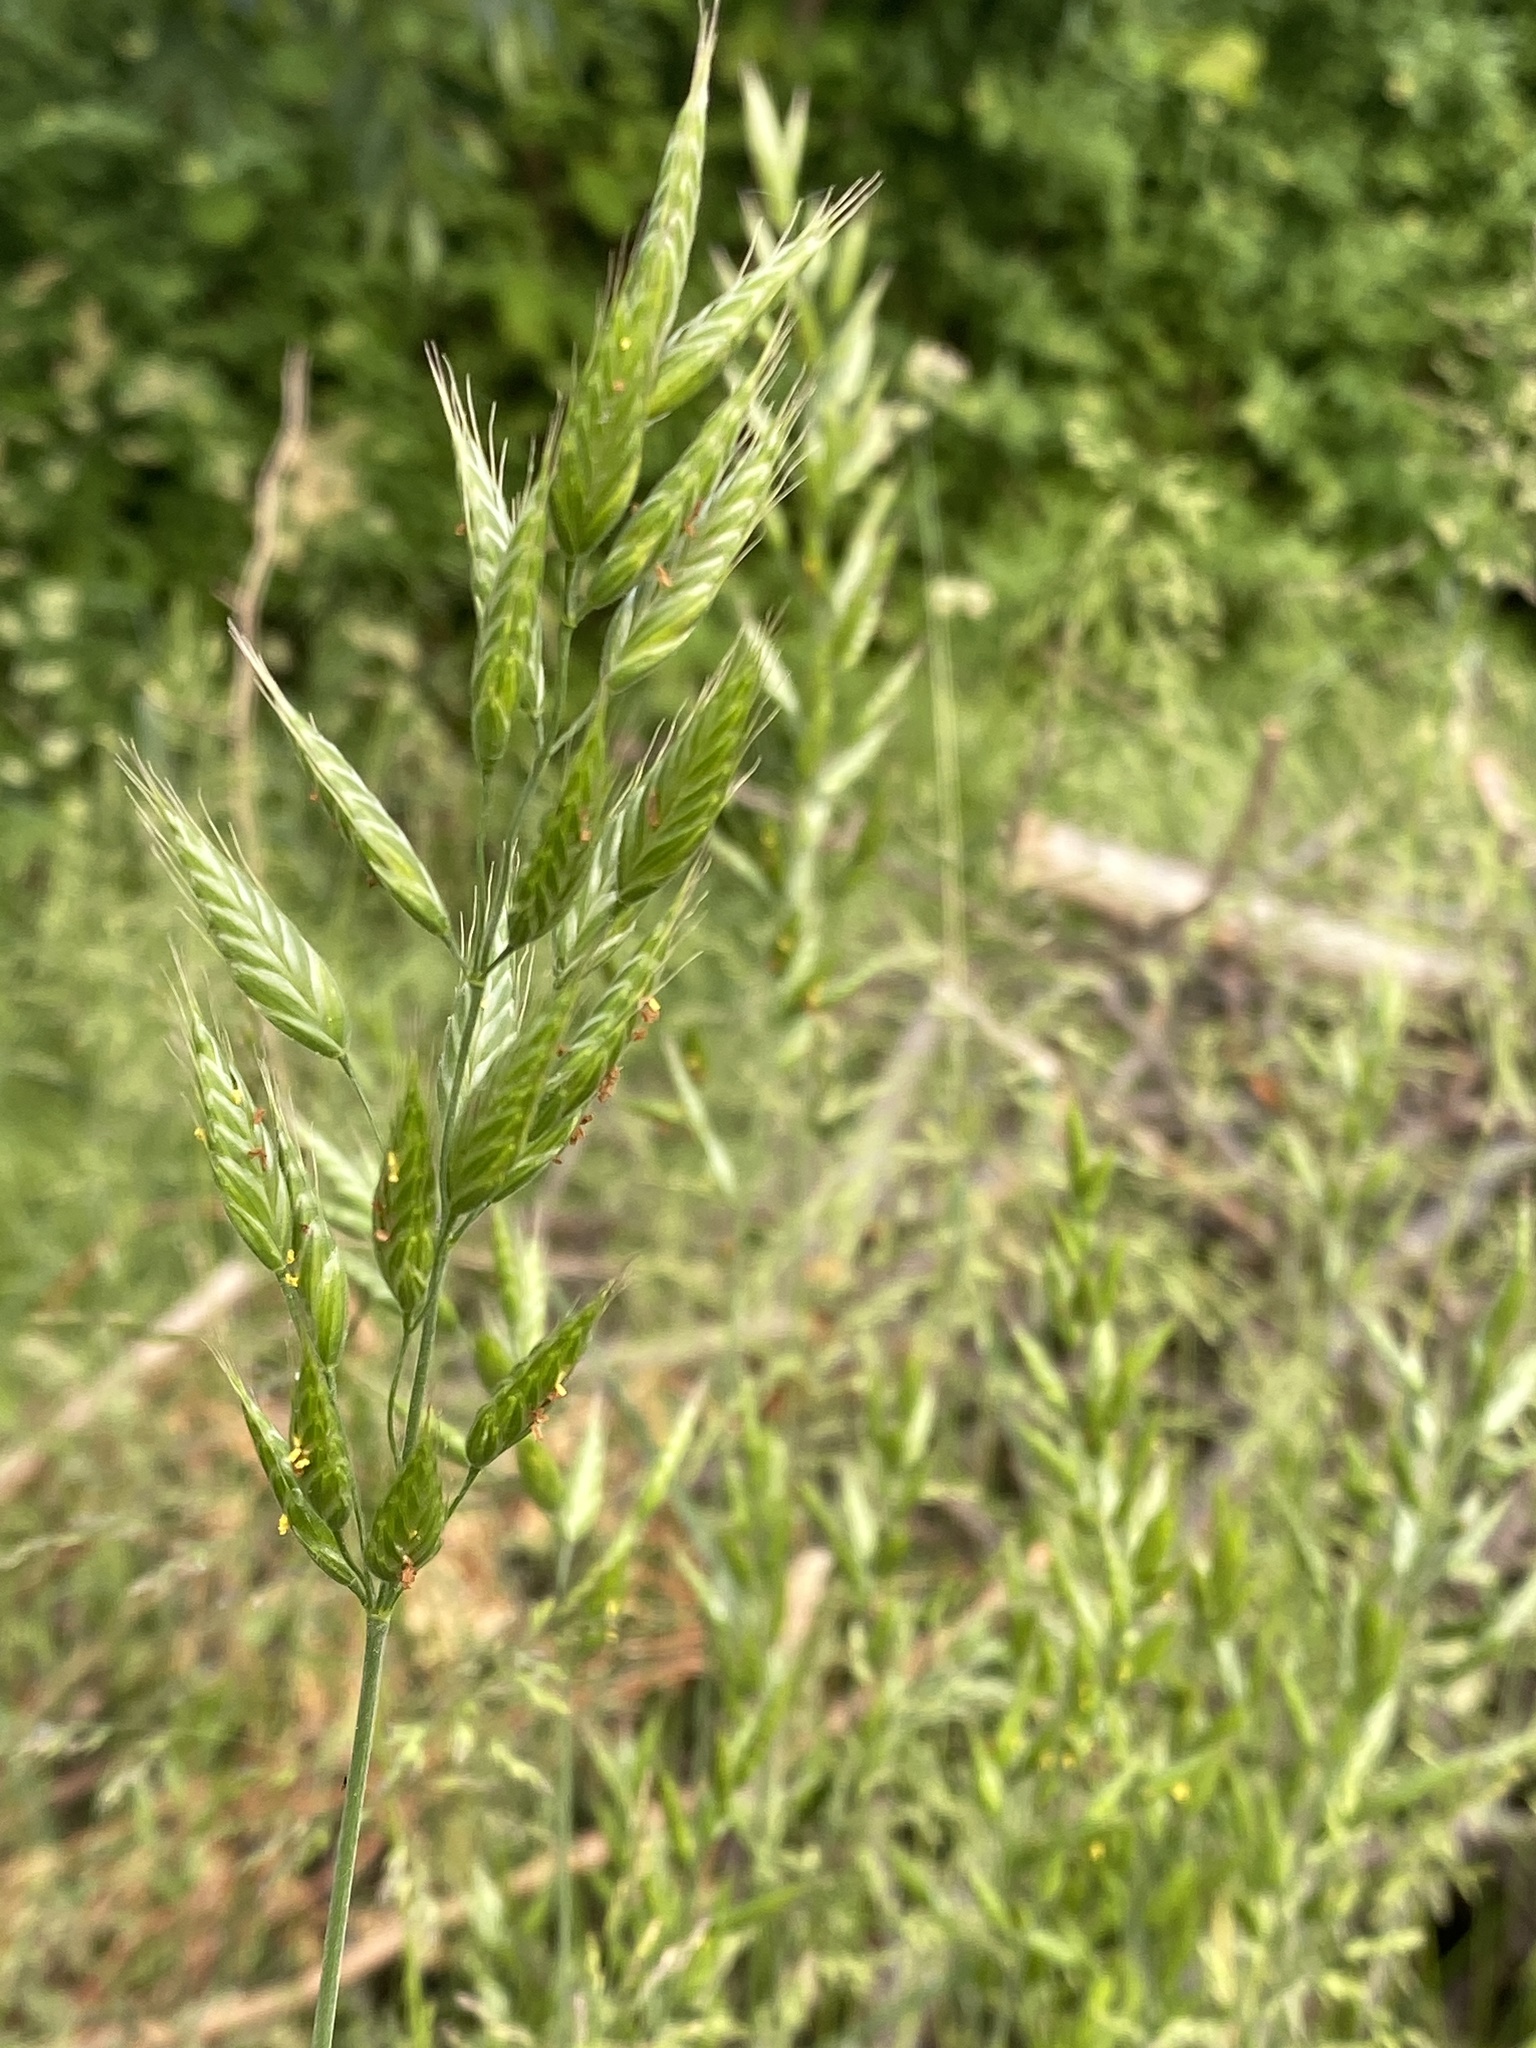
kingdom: Plantae
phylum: Tracheophyta
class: Liliopsida
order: Poales
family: Poaceae
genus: Bromus
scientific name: Bromus hordeaceus
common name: Soft brome
